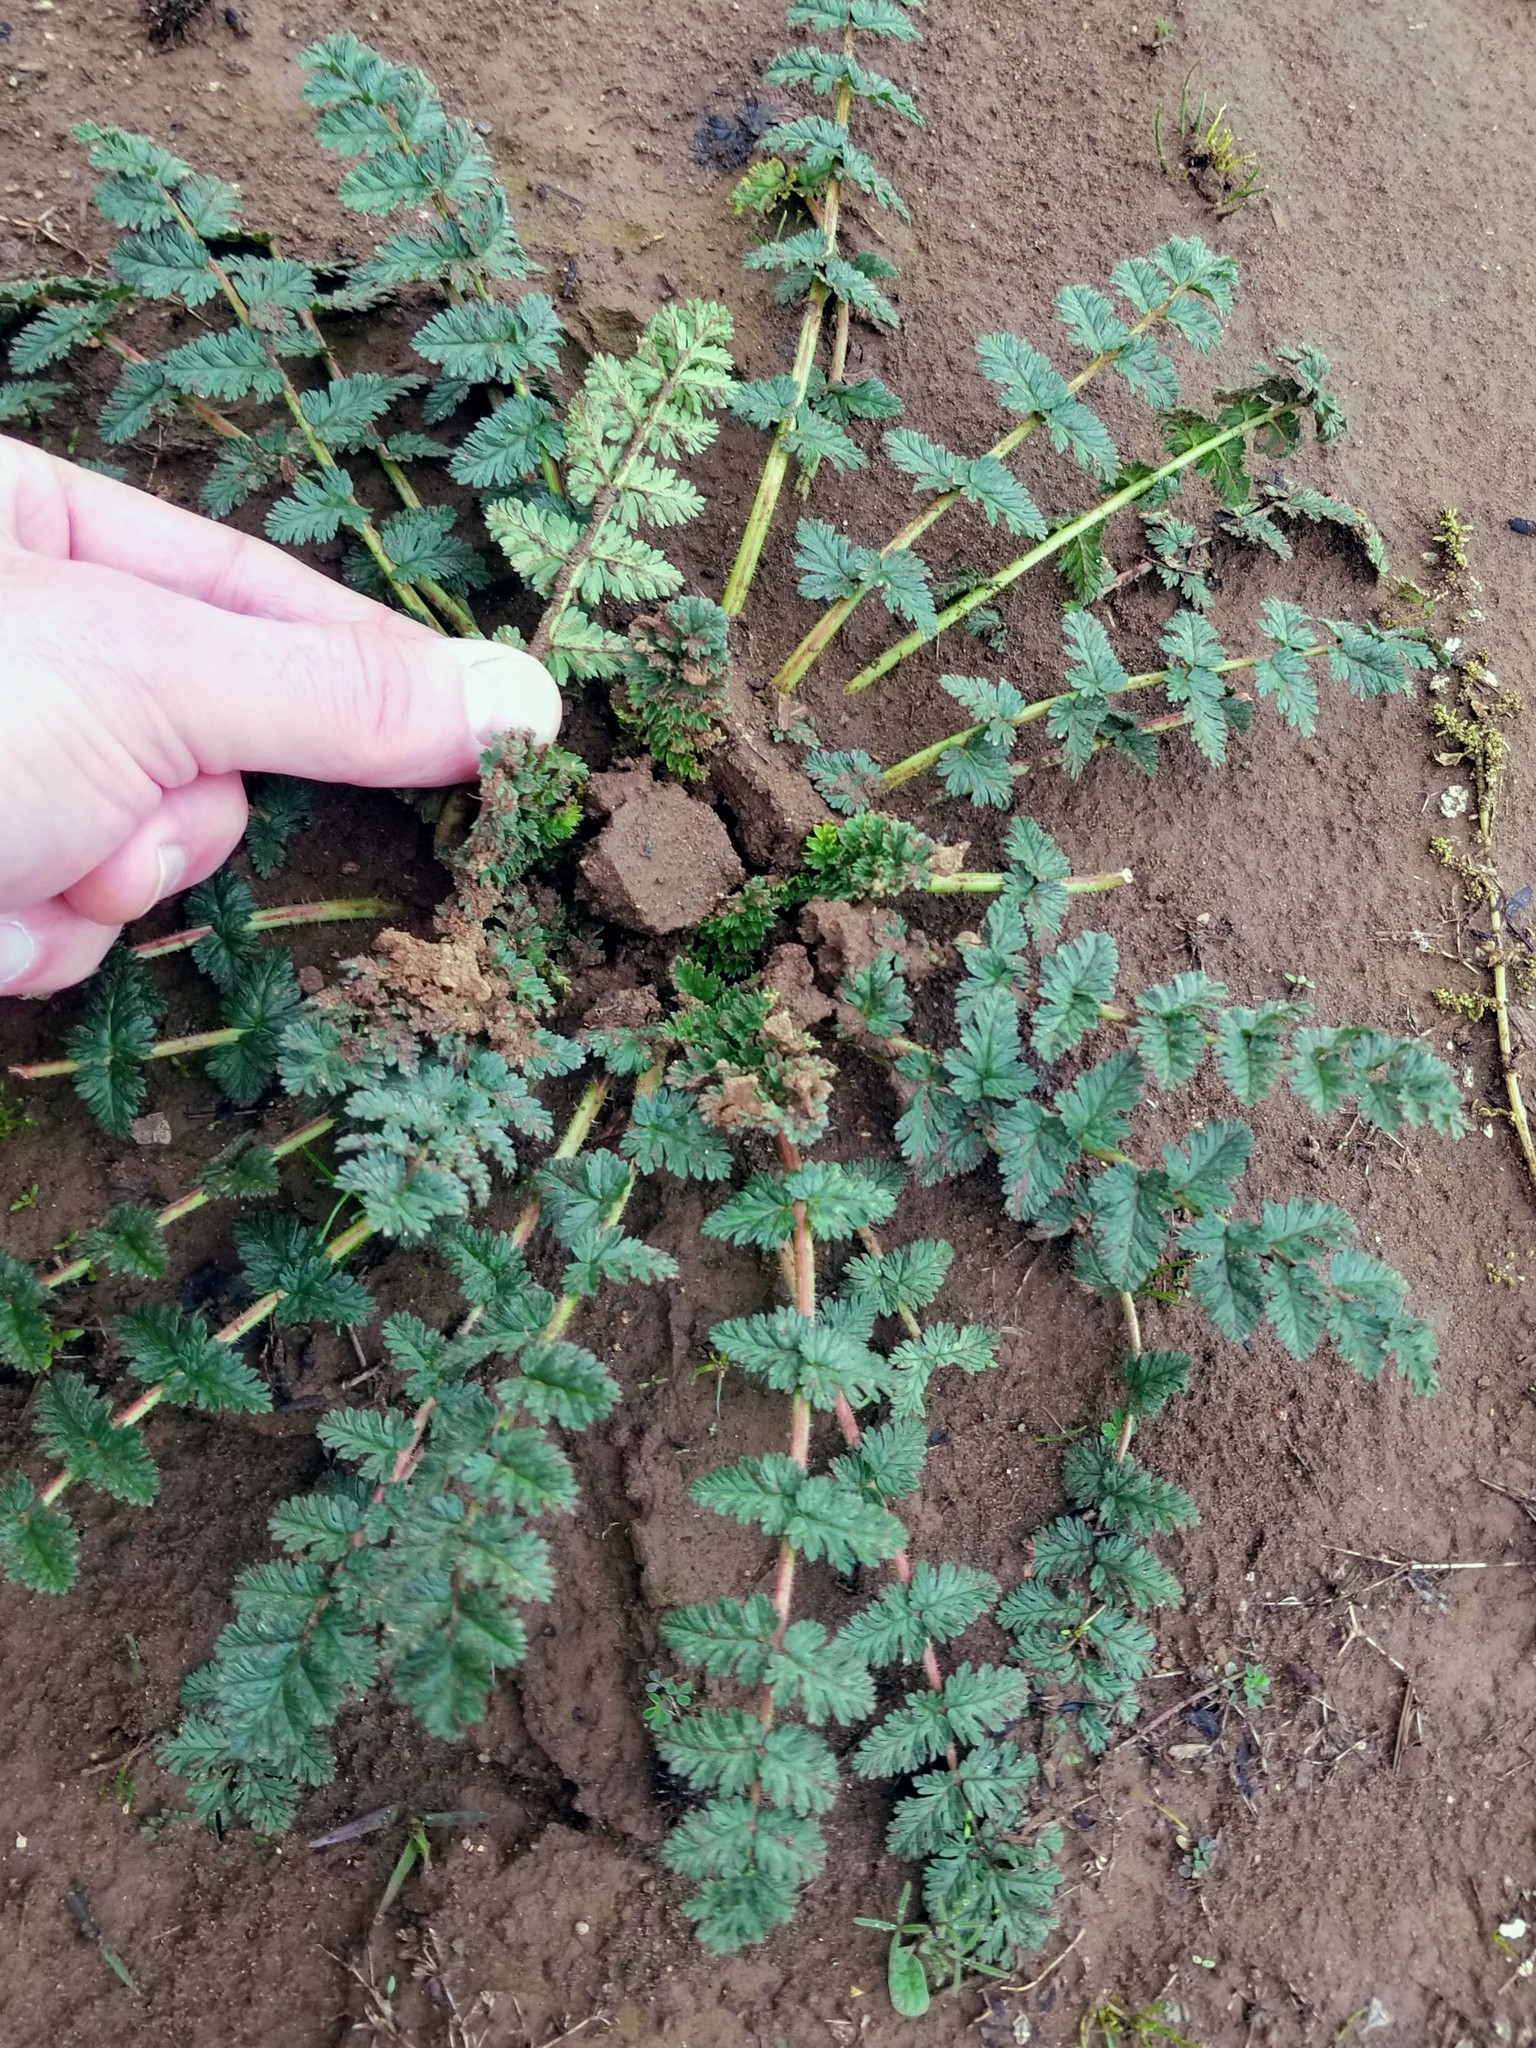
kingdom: Plantae
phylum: Tracheophyta
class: Magnoliopsida
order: Geraniales
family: Geraniaceae
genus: Erodium
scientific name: Erodium cicutarium
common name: Common stork's-bill
